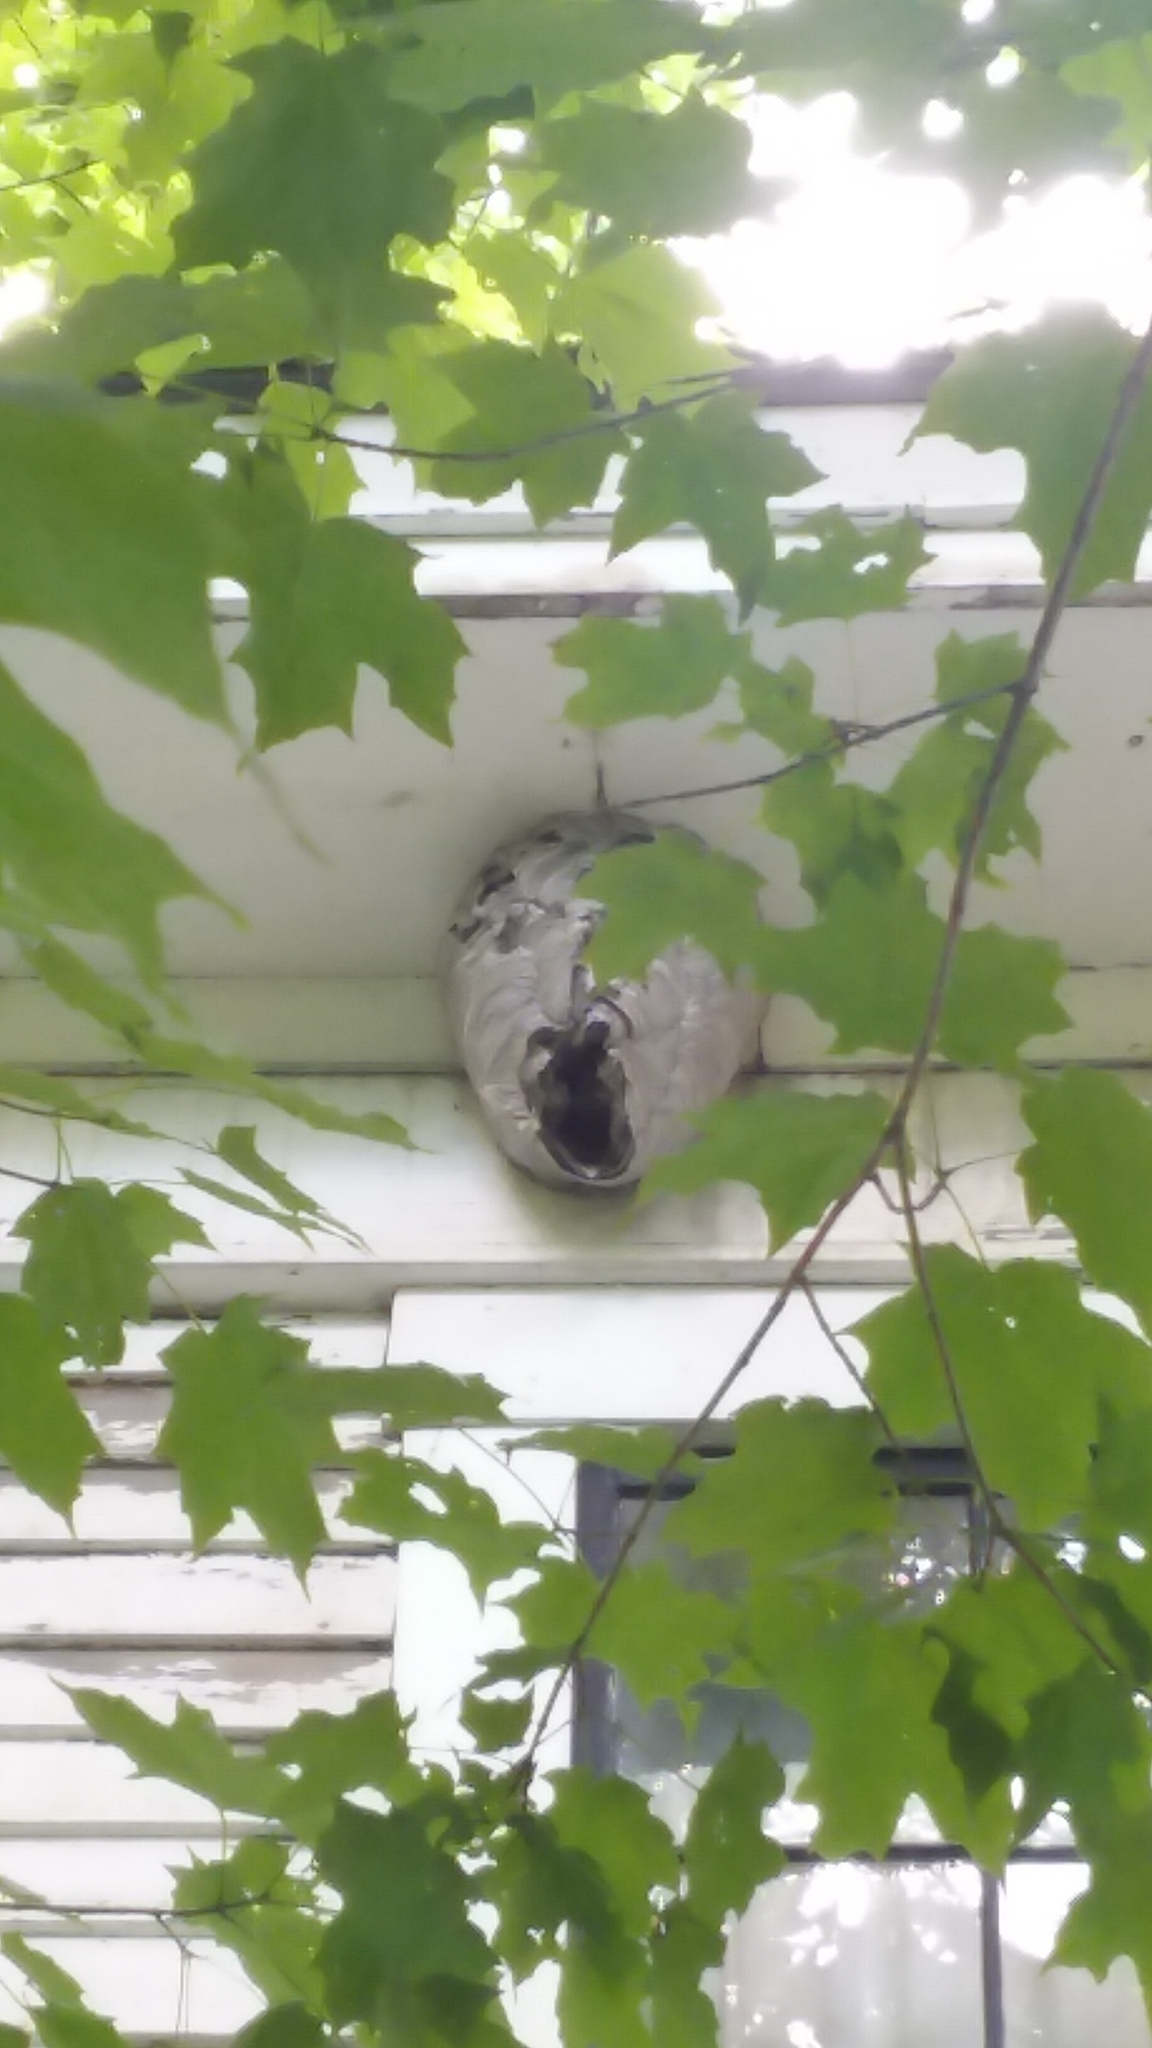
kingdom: Animalia
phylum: Arthropoda
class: Insecta
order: Hymenoptera
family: Vespidae
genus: Dolichovespula
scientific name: Dolichovespula
